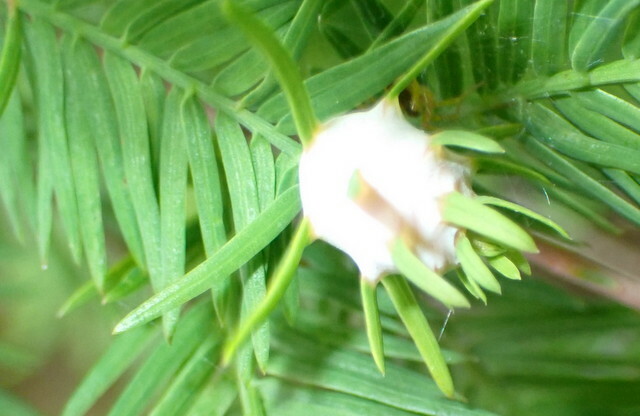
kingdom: Animalia
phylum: Arthropoda
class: Insecta
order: Diptera
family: Cecidomyiidae
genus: Taxodiomyia
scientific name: Taxodiomyia cupressiananassa
